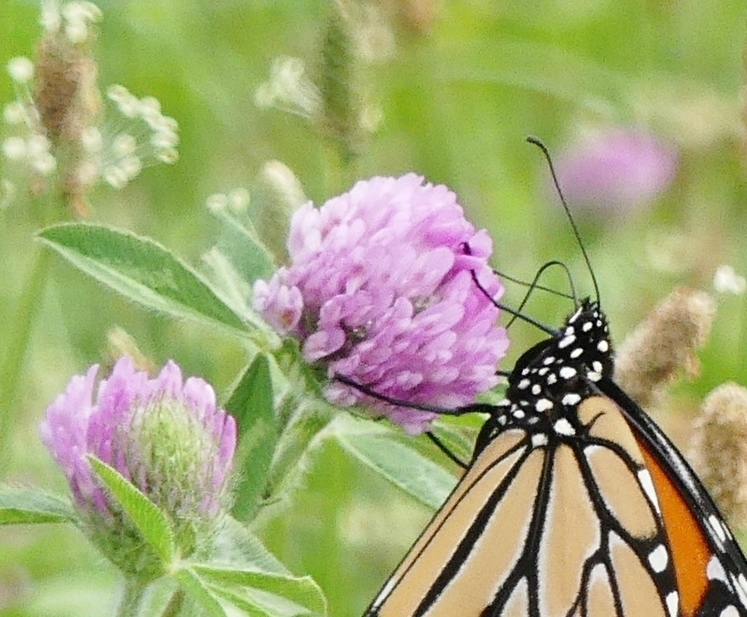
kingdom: Plantae
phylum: Tracheophyta
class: Magnoliopsida
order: Fabales
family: Fabaceae
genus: Trifolium
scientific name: Trifolium pratense
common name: Red clover
